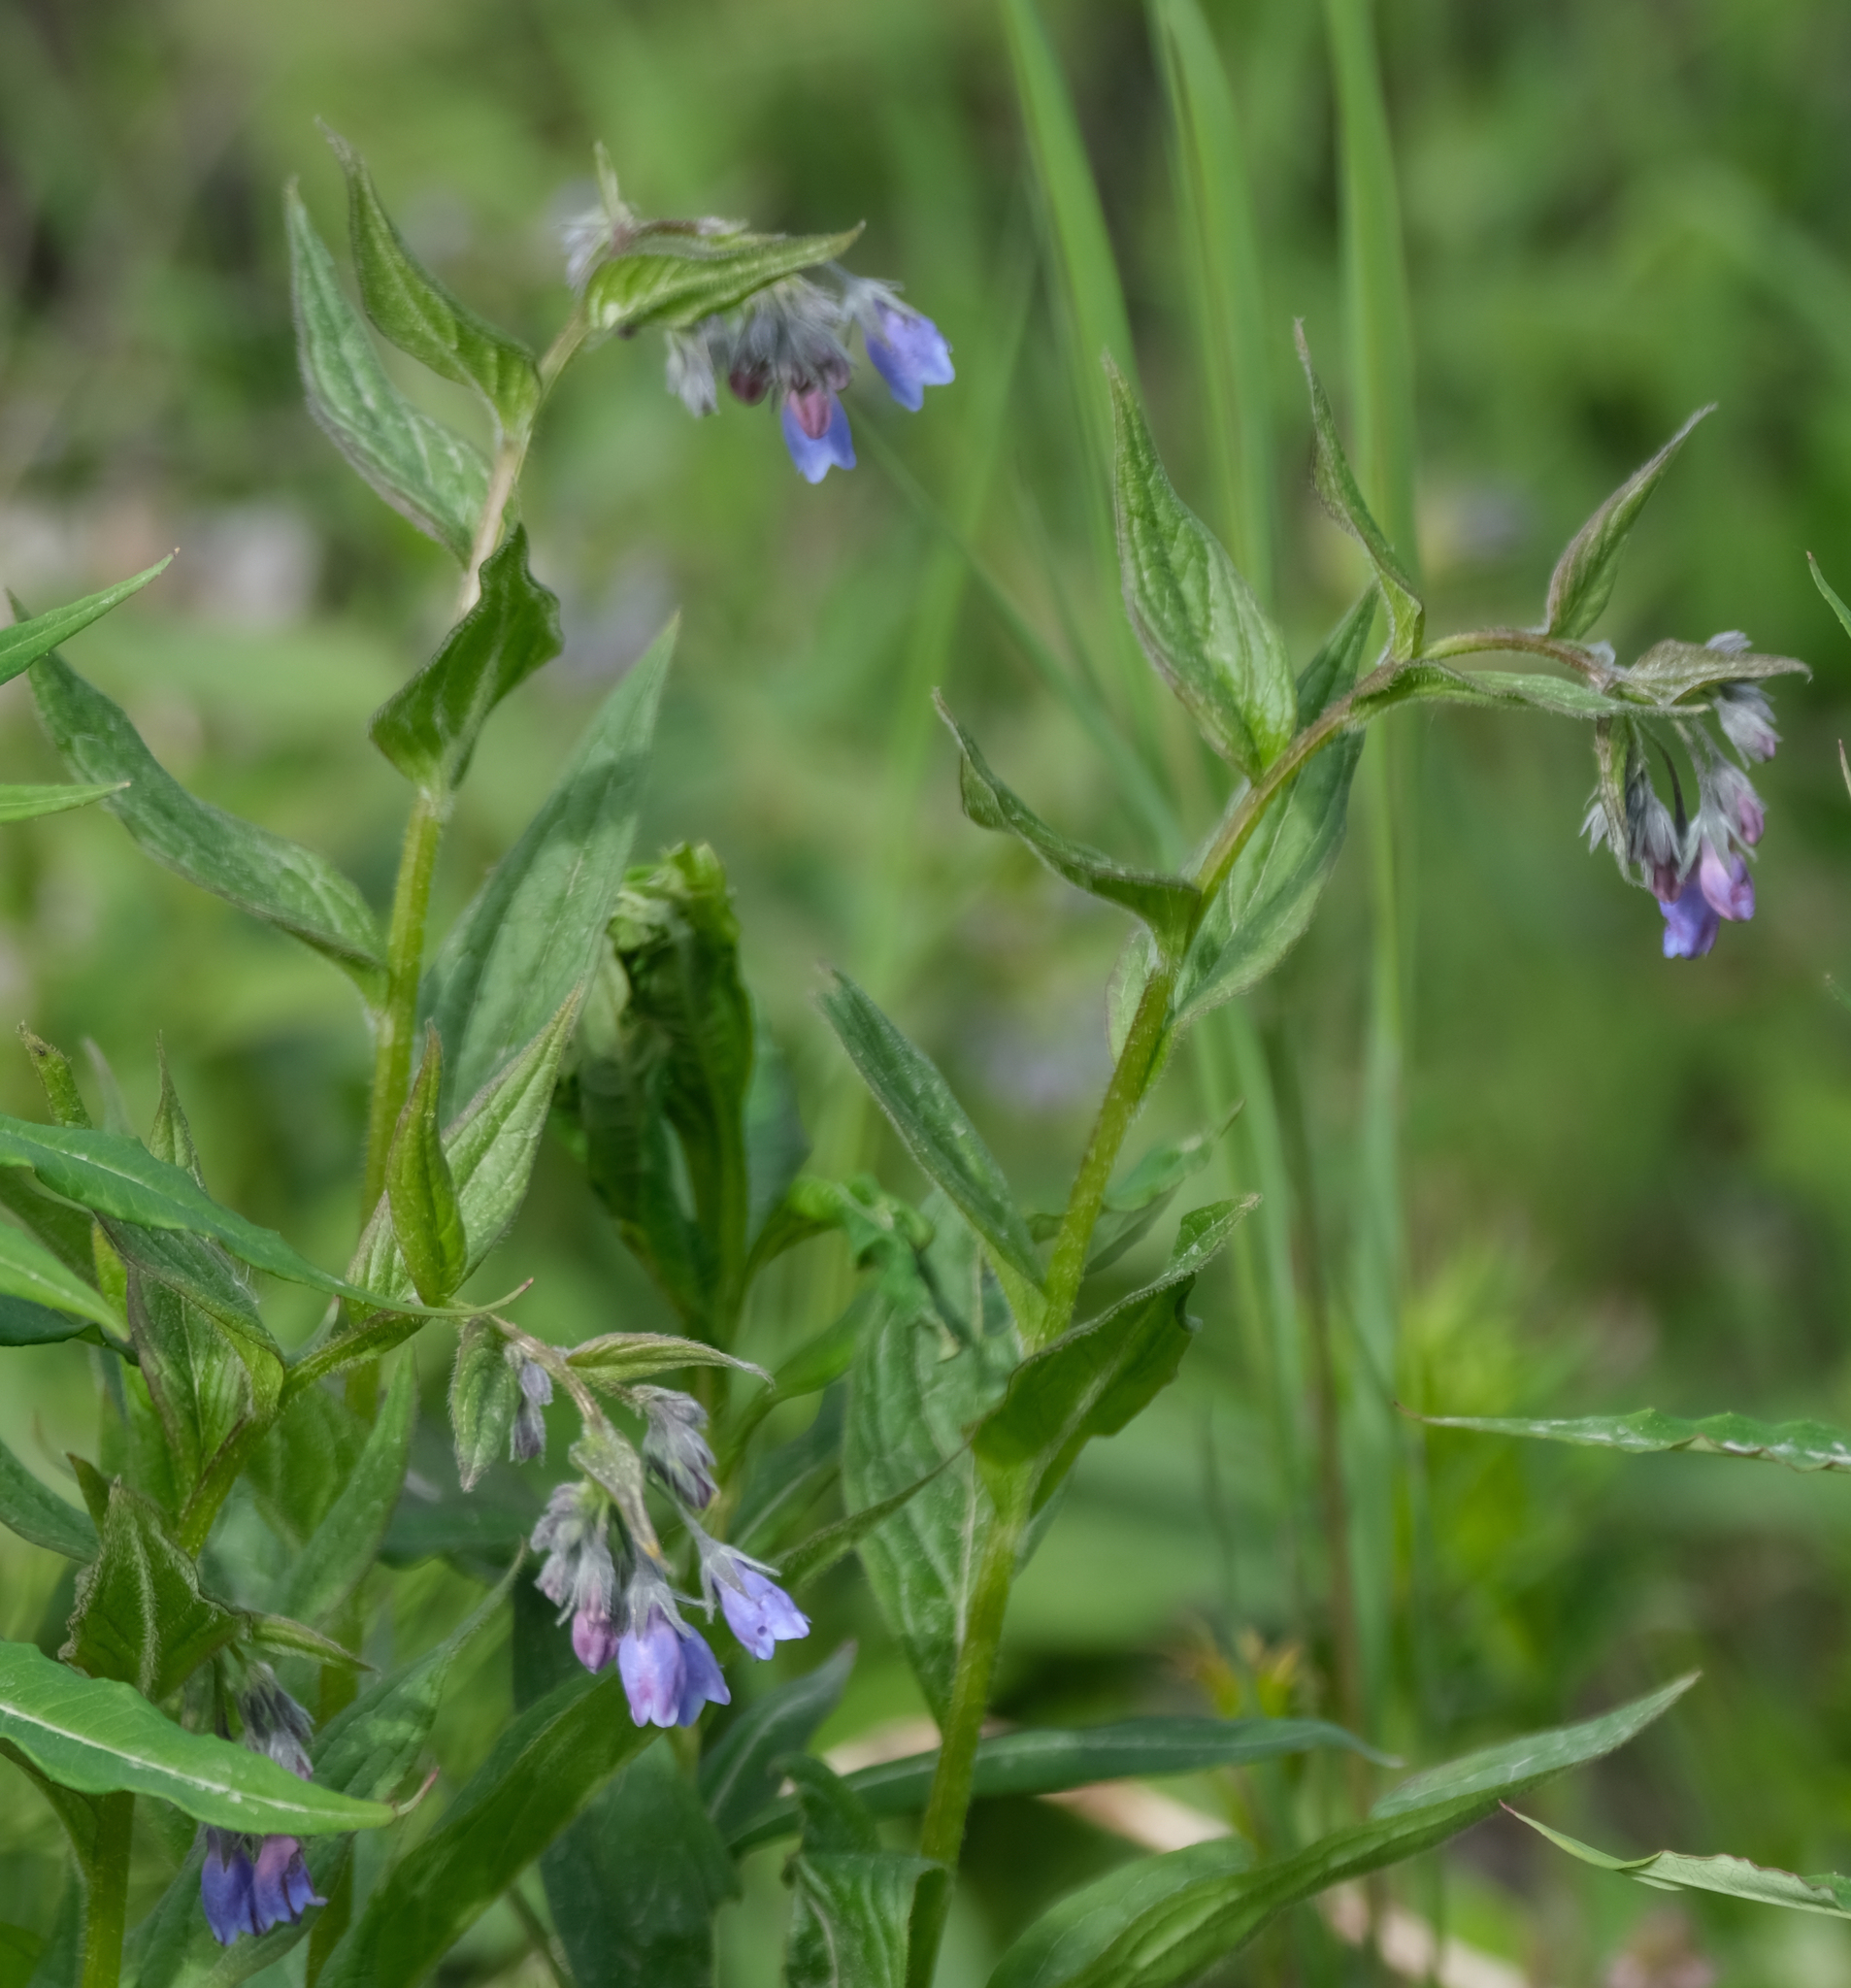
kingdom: Plantae
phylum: Tracheophyta
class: Magnoliopsida
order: Boraginales
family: Boraginaceae
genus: Mertensia
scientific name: Mertensia paniculata
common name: Panicled bluebells
